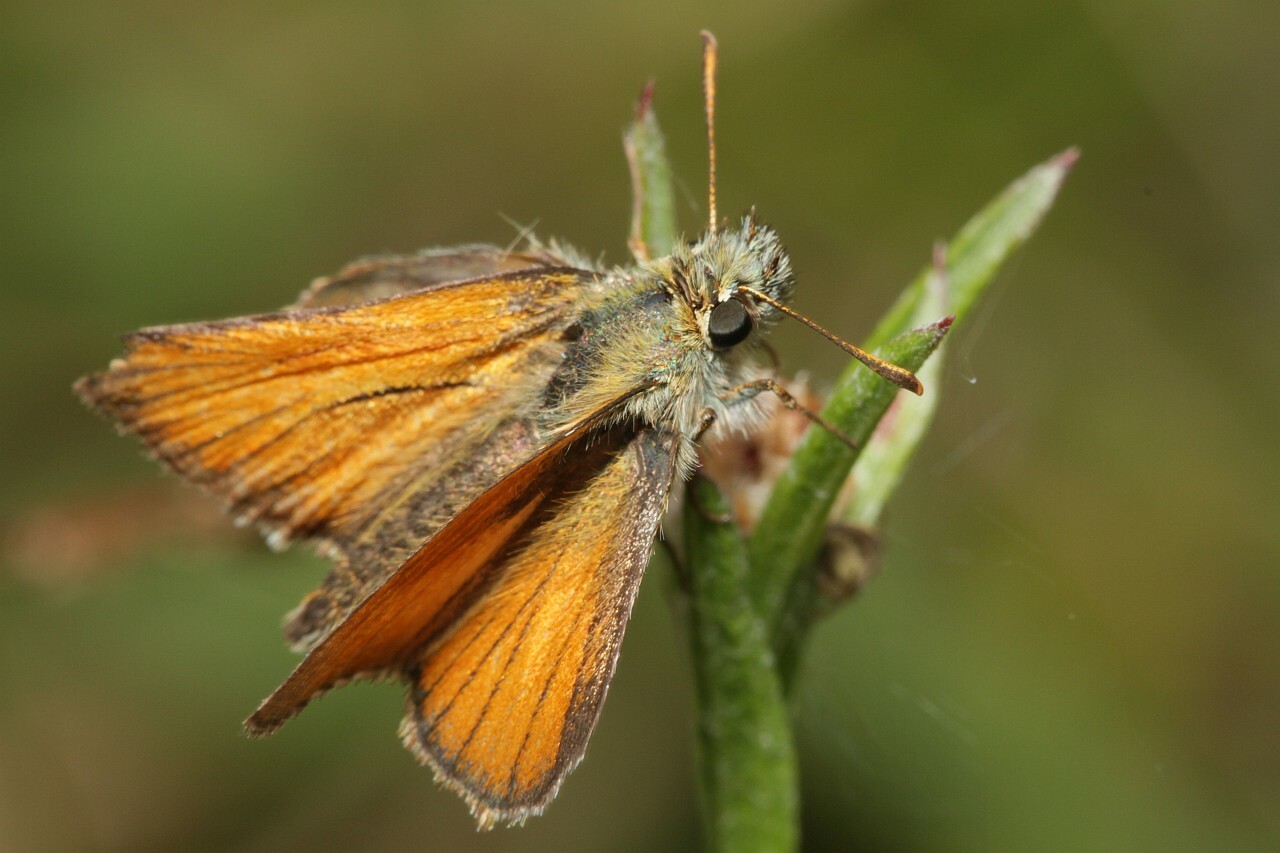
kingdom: Animalia
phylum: Arthropoda
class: Insecta
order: Lepidoptera
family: Hesperiidae
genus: Thymelicus
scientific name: Thymelicus sylvestris
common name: Small skipper
